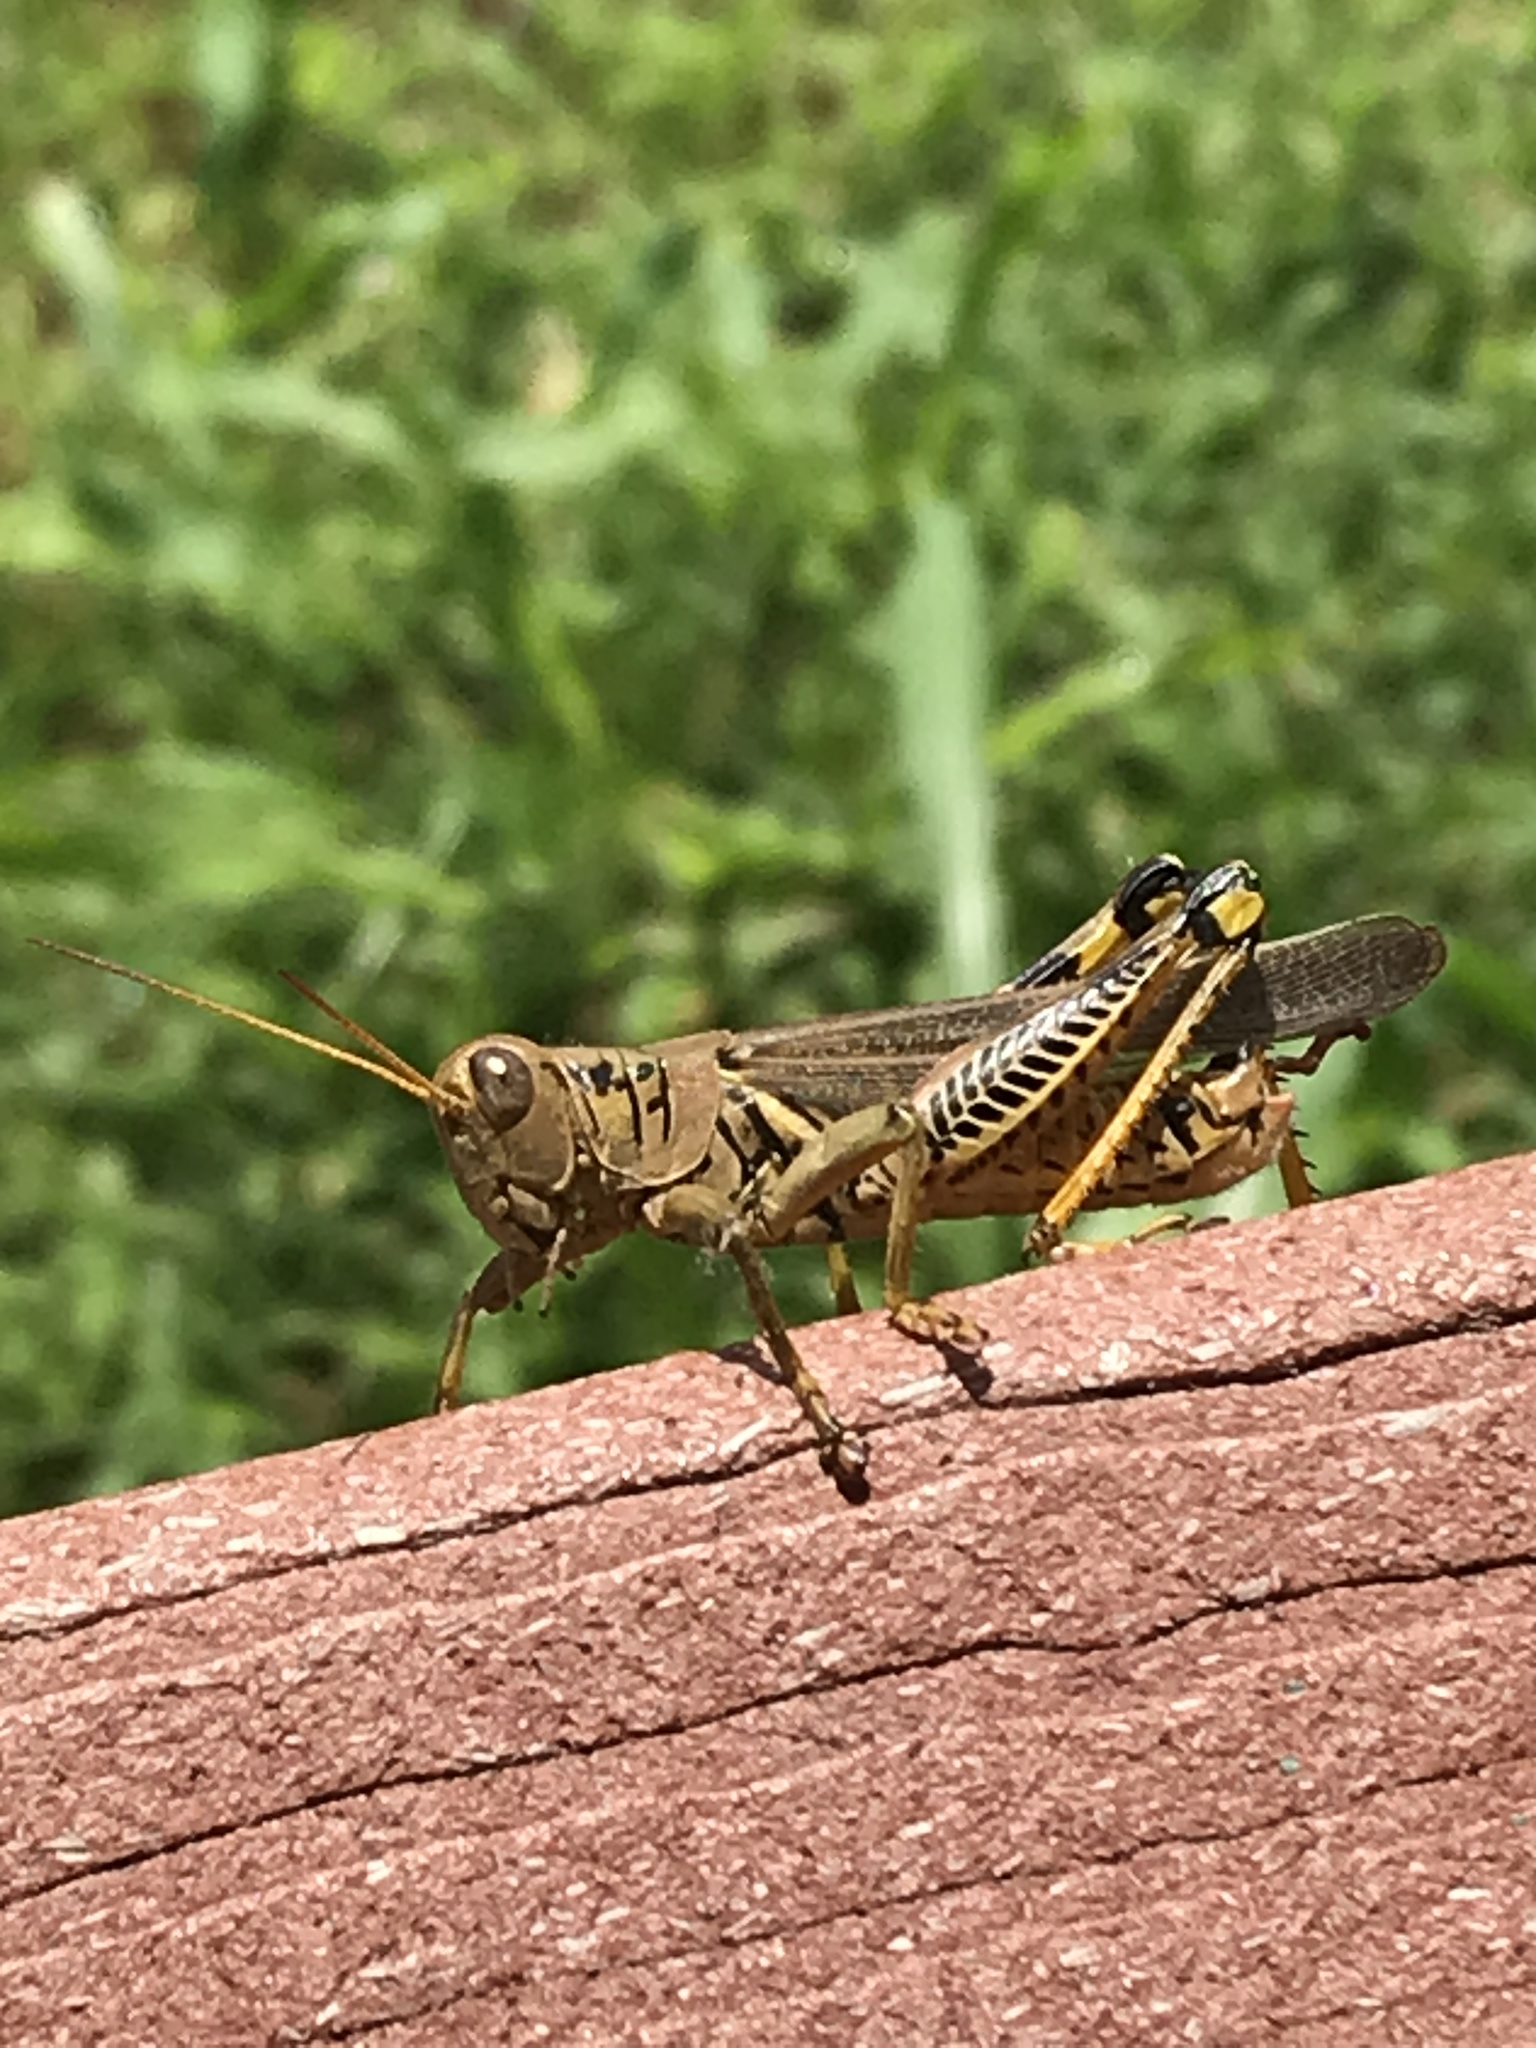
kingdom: Animalia
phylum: Arthropoda
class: Insecta
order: Orthoptera
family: Acrididae
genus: Melanoplus
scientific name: Melanoplus differentialis
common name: Differential grasshopper
